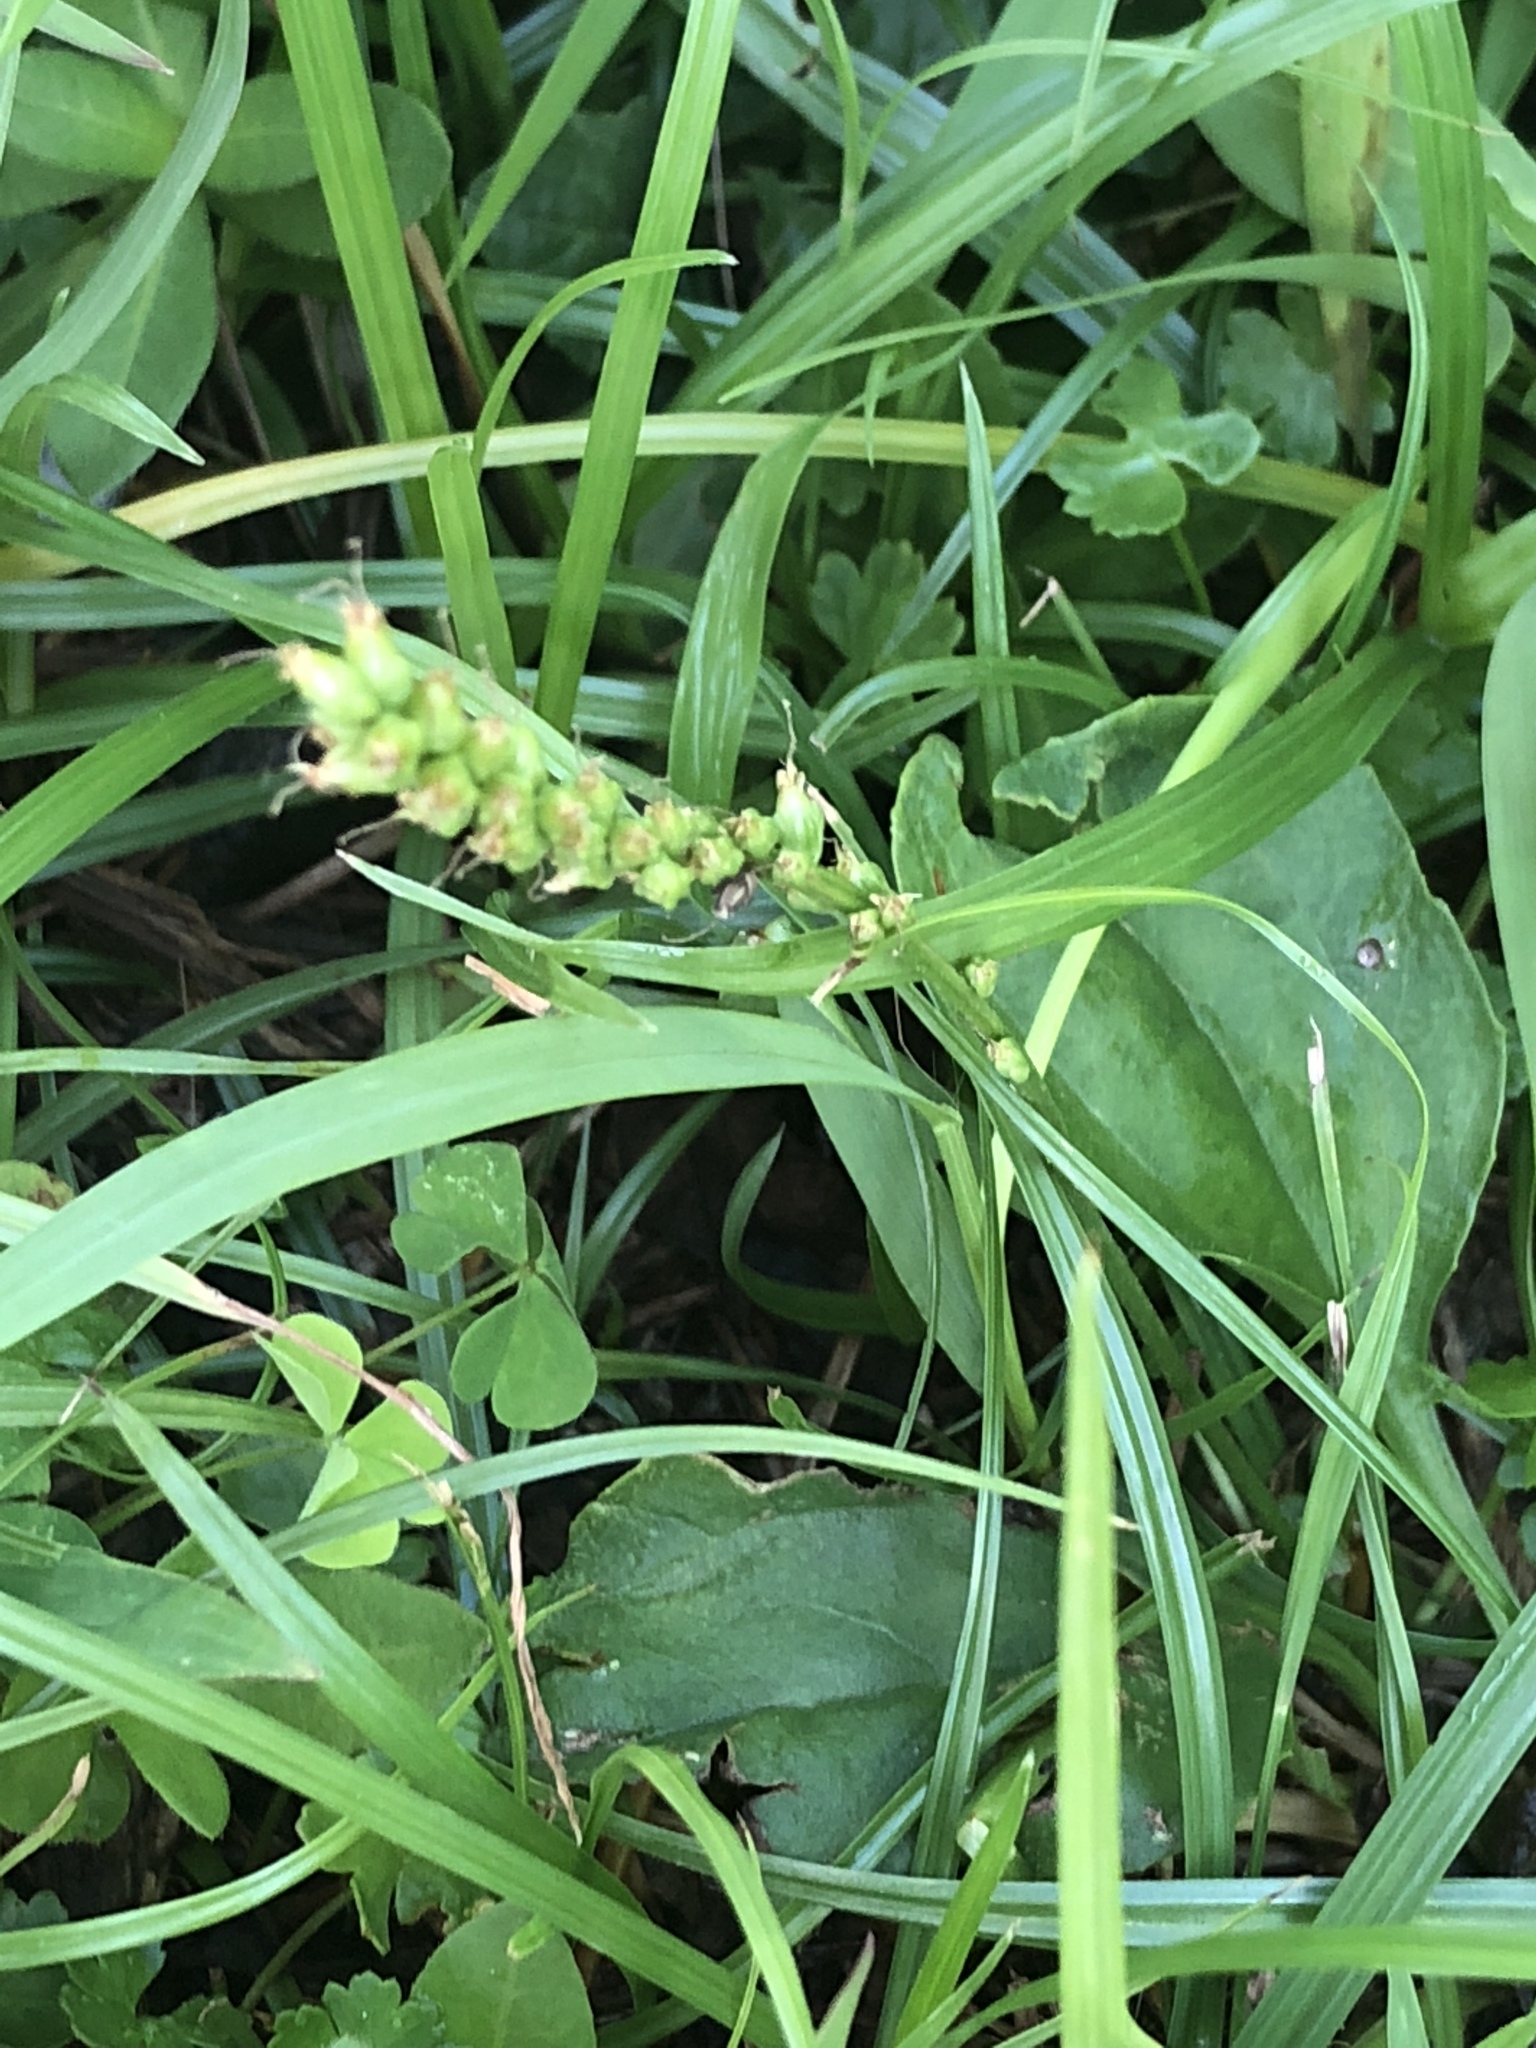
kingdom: Plantae
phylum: Tracheophyta
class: Magnoliopsida
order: Lamiales
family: Plantaginaceae
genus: Plantago
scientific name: Plantago major
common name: Common plantain
